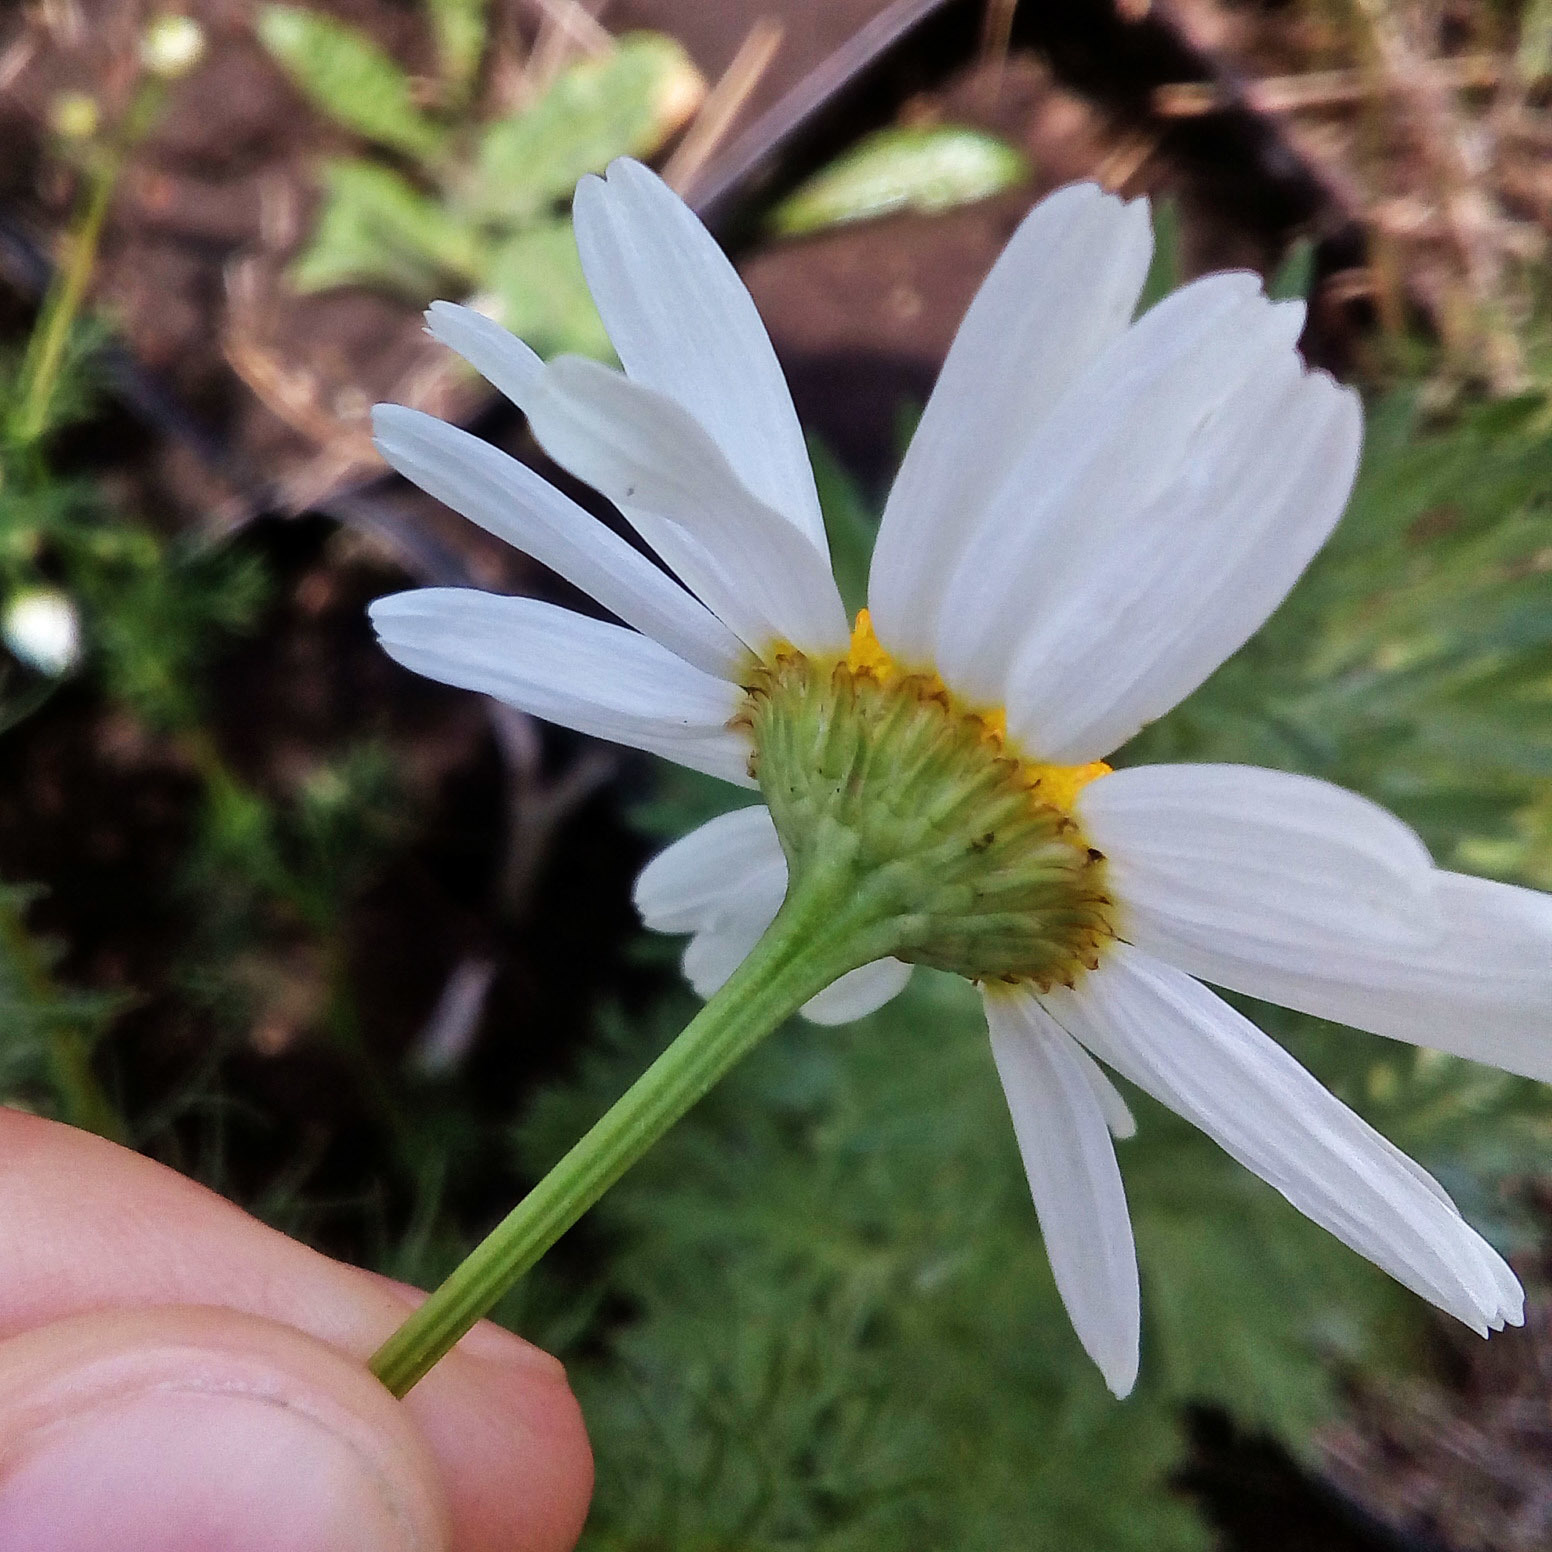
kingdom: Plantae
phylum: Tracheophyta
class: Magnoliopsida
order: Asterales
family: Asteraceae
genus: Tripleurospermum
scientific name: Tripleurospermum inodorum
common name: Scentless mayweed
